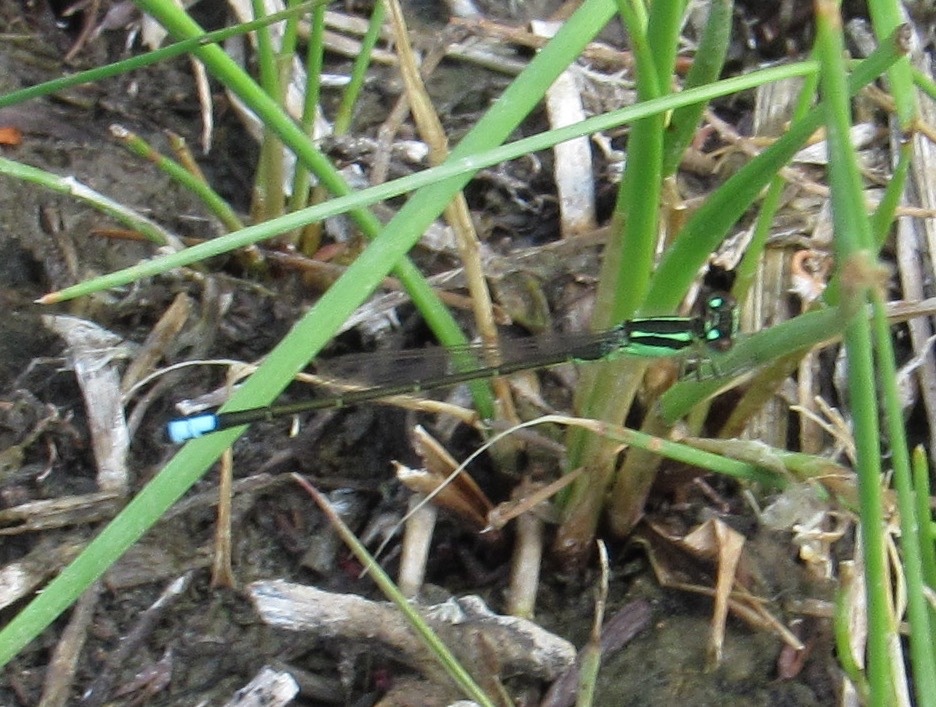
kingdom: Animalia
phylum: Arthropoda
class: Insecta
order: Odonata
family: Coenagrionidae
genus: Ischnura
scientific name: Ischnura verticalis
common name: Eastern forktail
